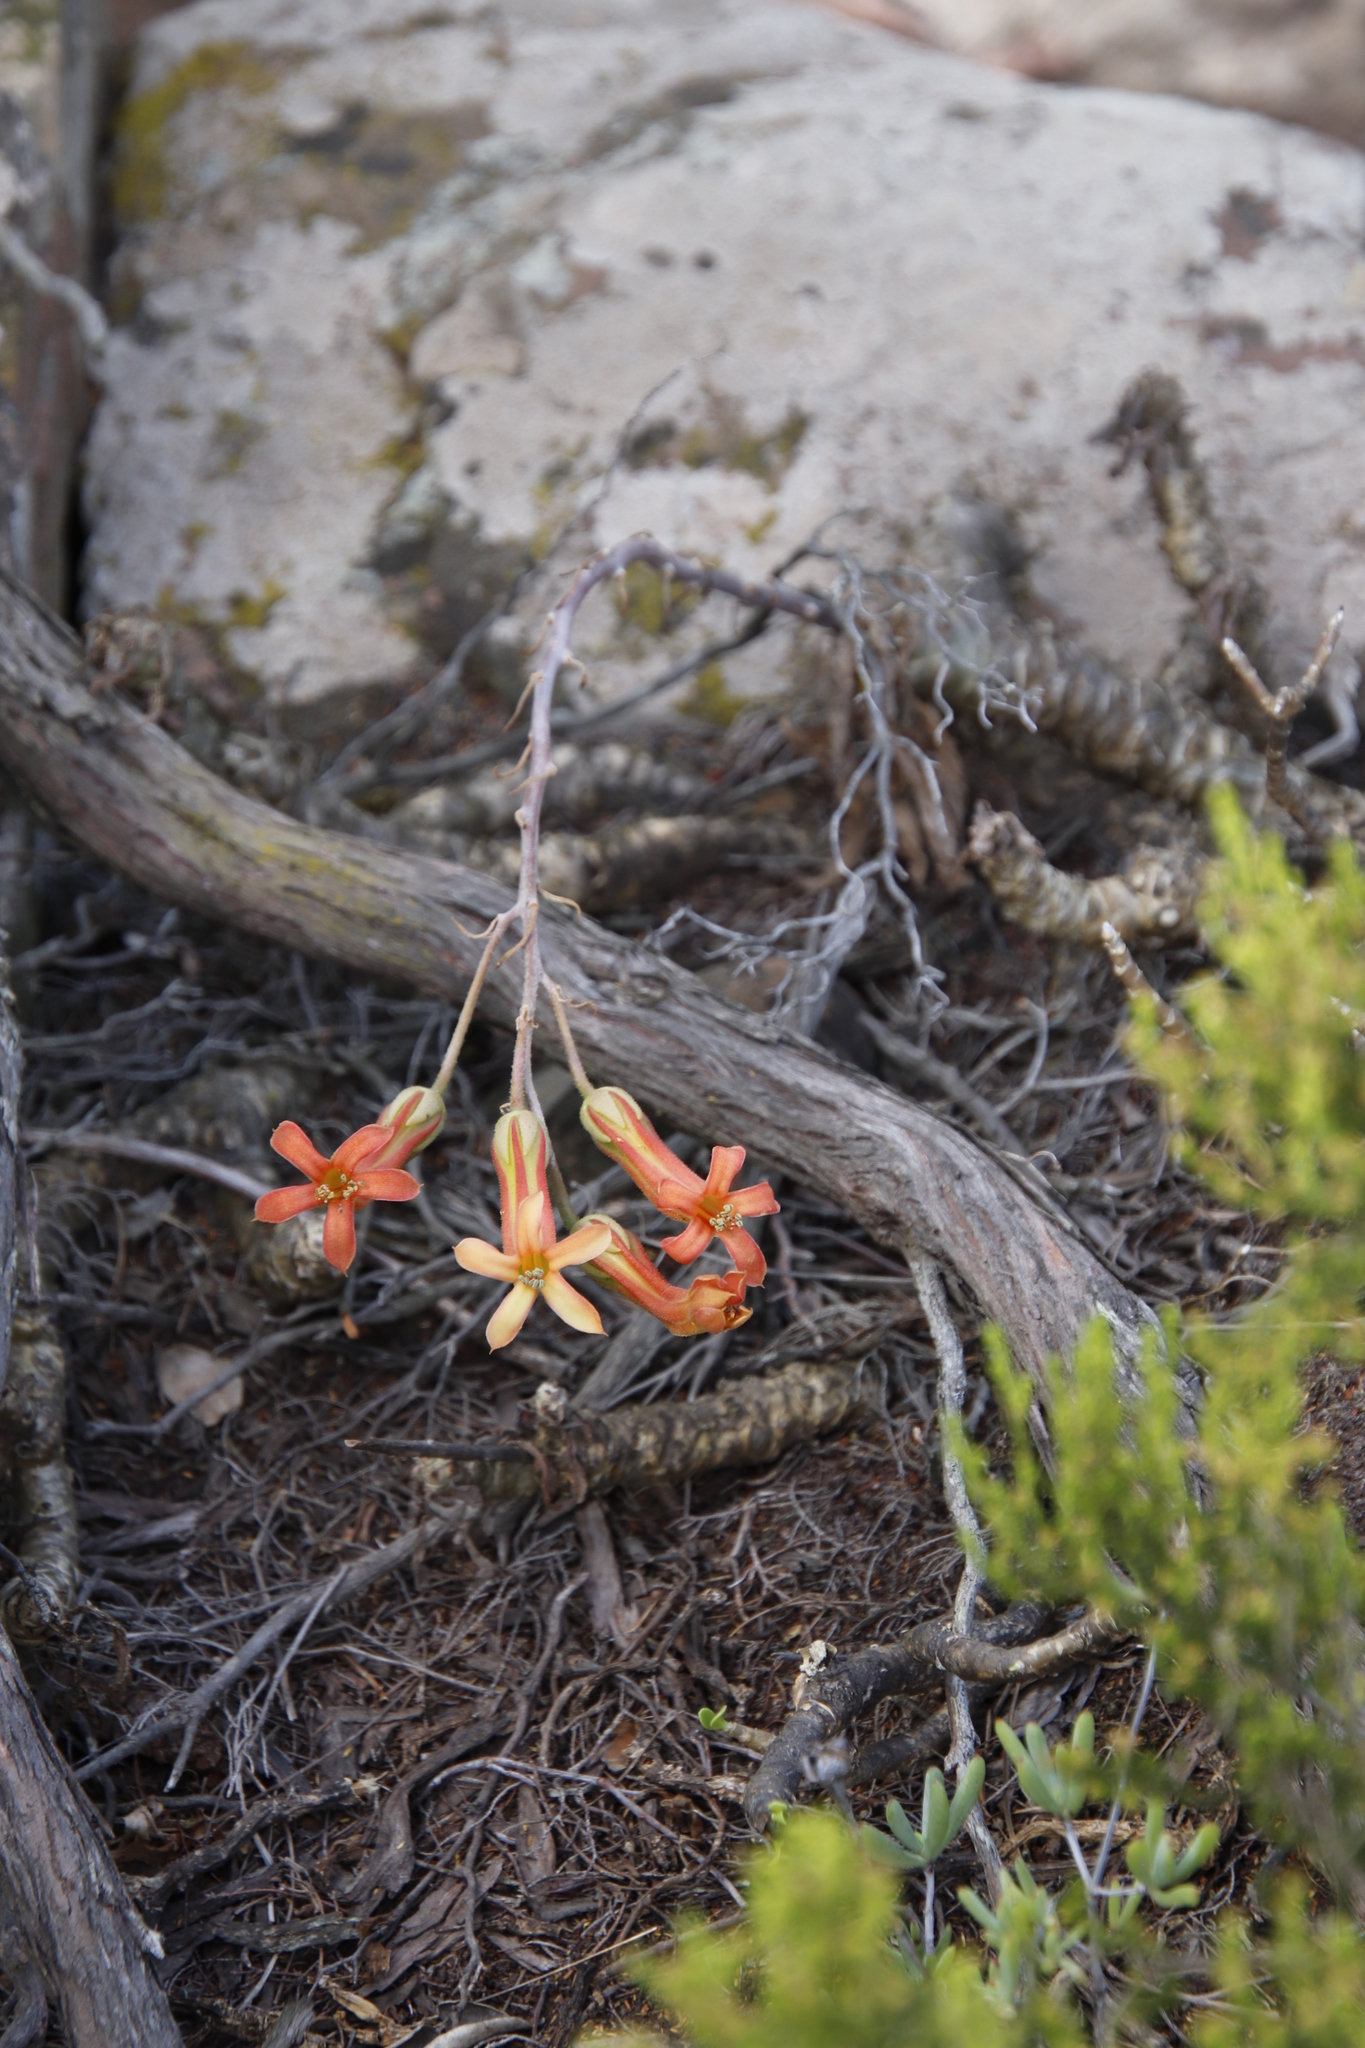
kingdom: Plantae
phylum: Tracheophyta
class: Magnoliopsida
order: Saxifragales
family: Crassulaceae
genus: Tylecodon
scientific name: Tylecodon grandiflorus
